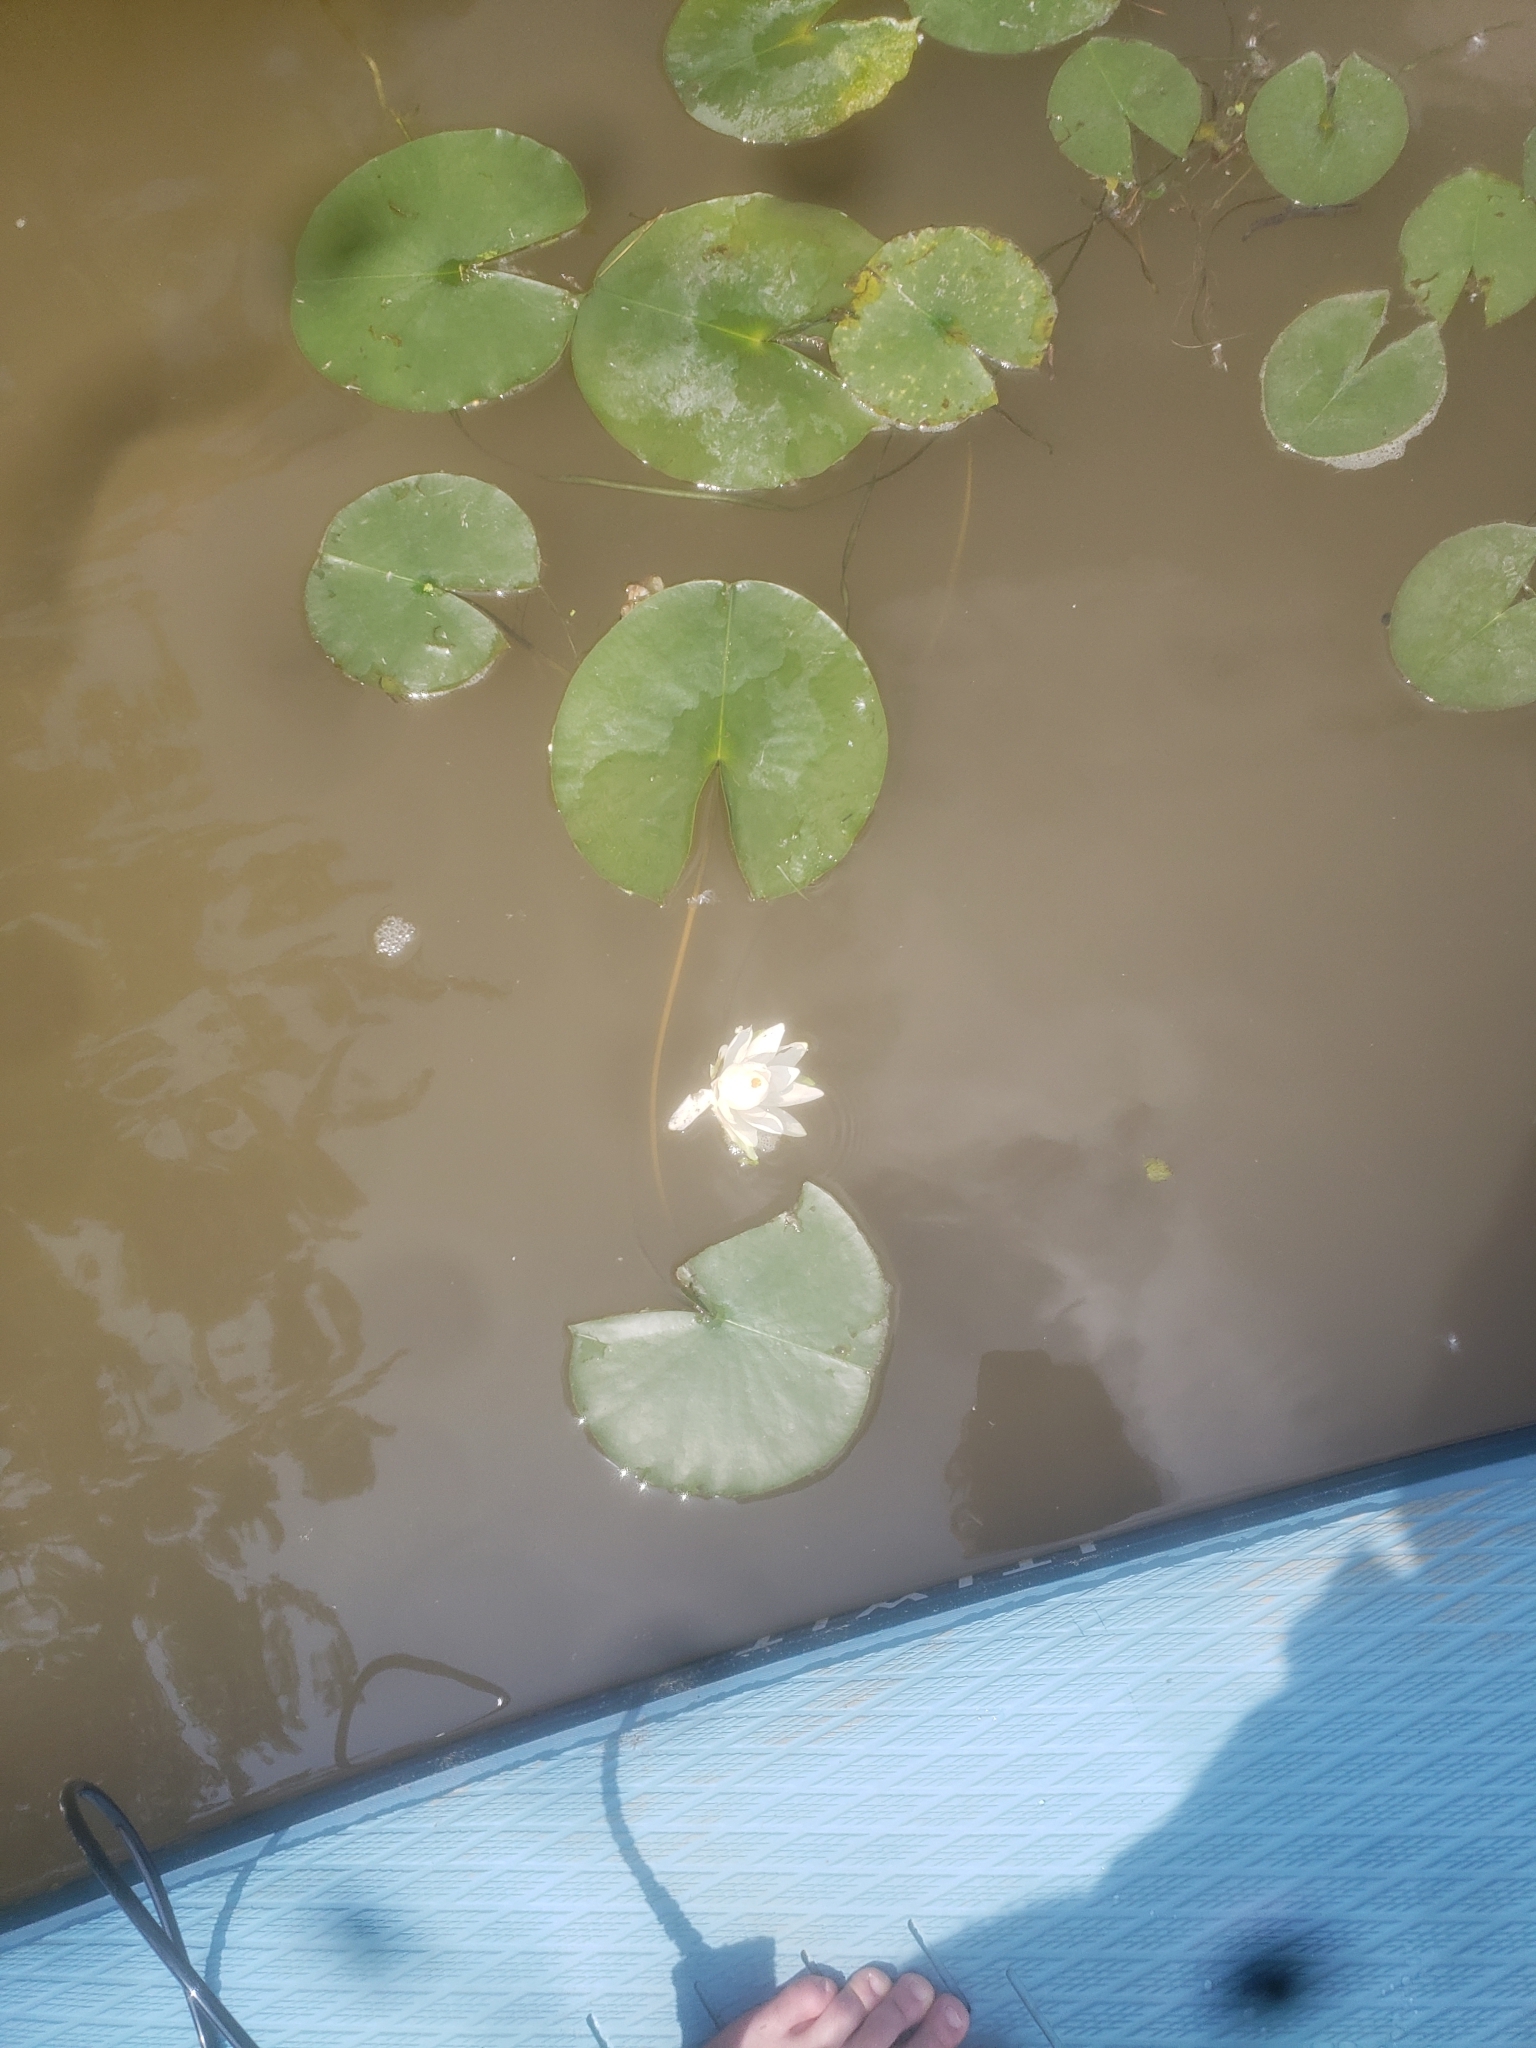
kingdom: Plantae
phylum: Tracheophyta
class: Magnoliopsida
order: Nymphaeales
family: Nymphaeaceae
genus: Nymphaea
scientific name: Nymphaea odorata
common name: Fragrant water-lily
